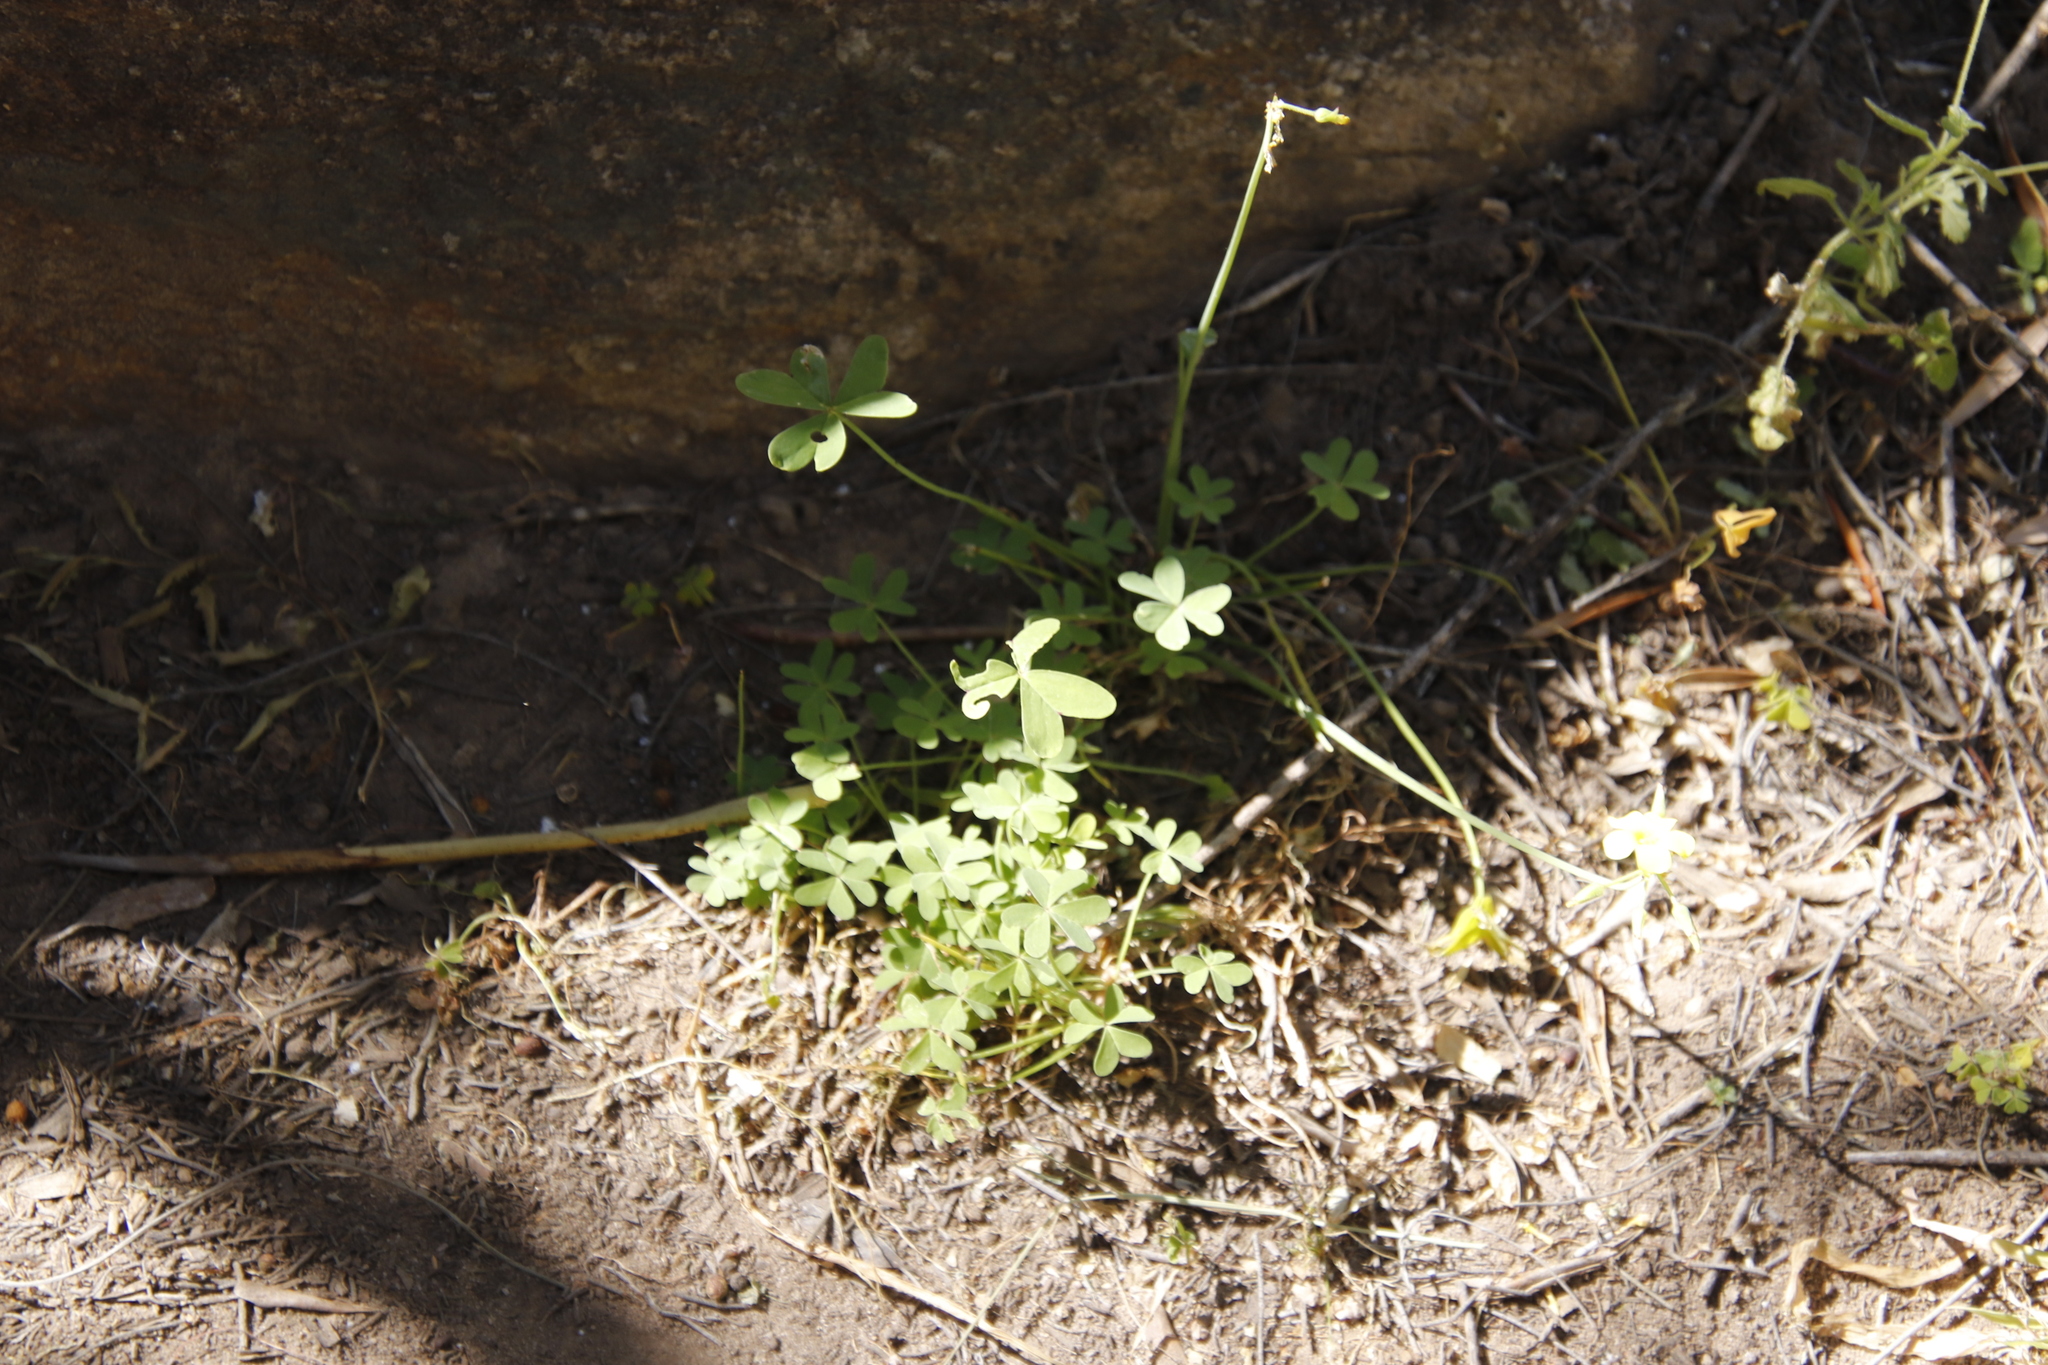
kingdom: Plantae
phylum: Tracheophyta
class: Magnoliopsida
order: Oxalidales
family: Oxalidaceae
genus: Oxalis
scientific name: Oxalis pes-caprae
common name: Bermuda-buttercup
